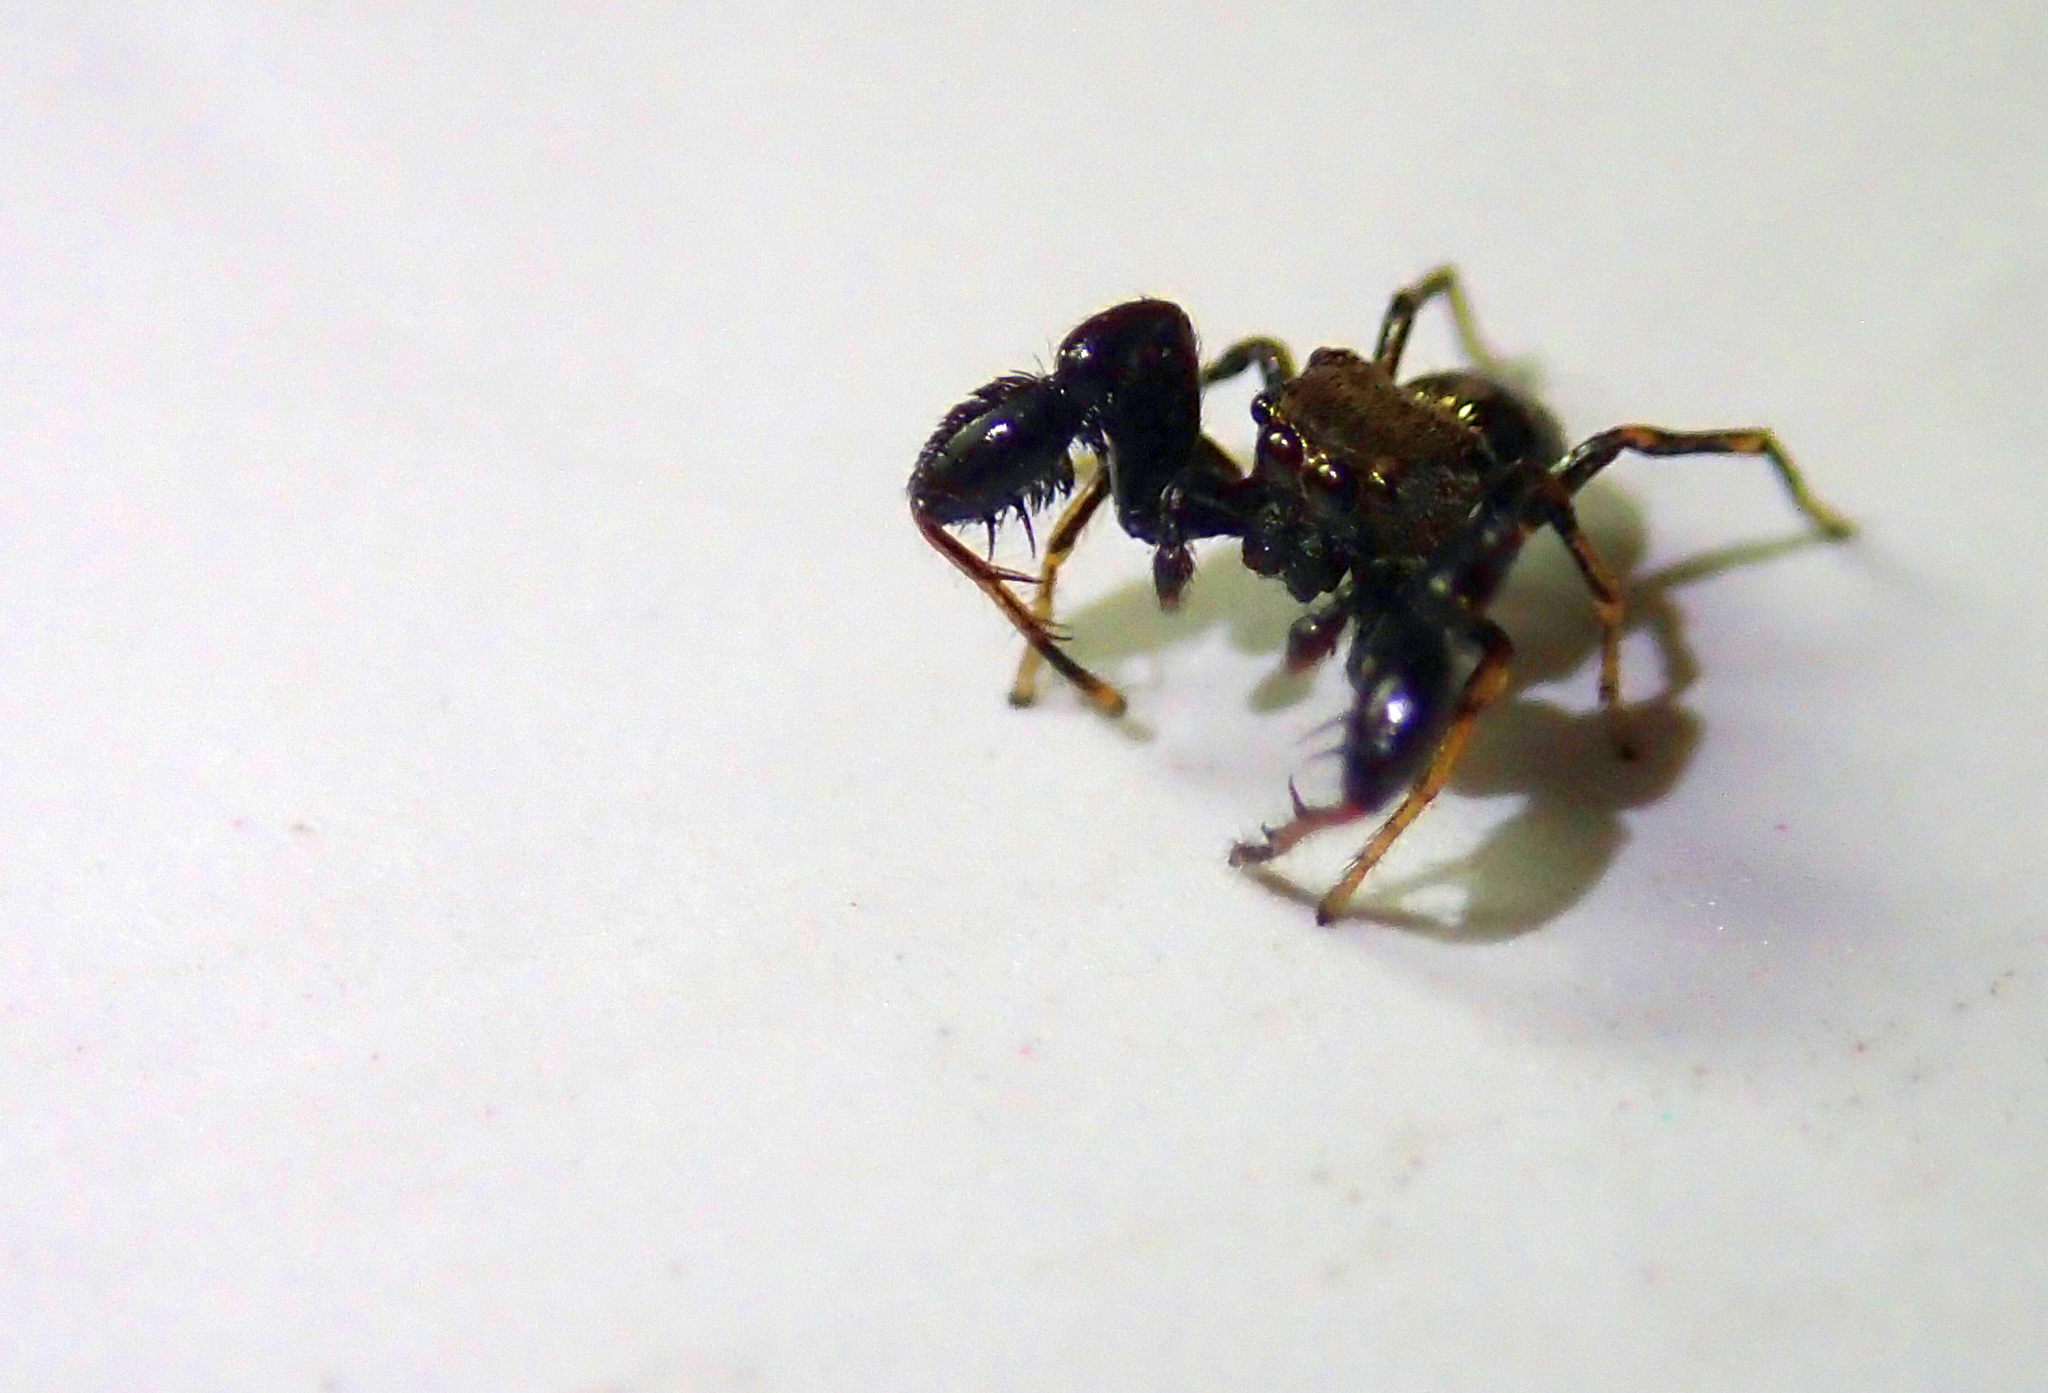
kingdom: Animalia
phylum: Arthropoda
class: Arachnida
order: Araneae
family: Salticidae
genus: Harmochirus
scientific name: Harmochirus brachiatus
